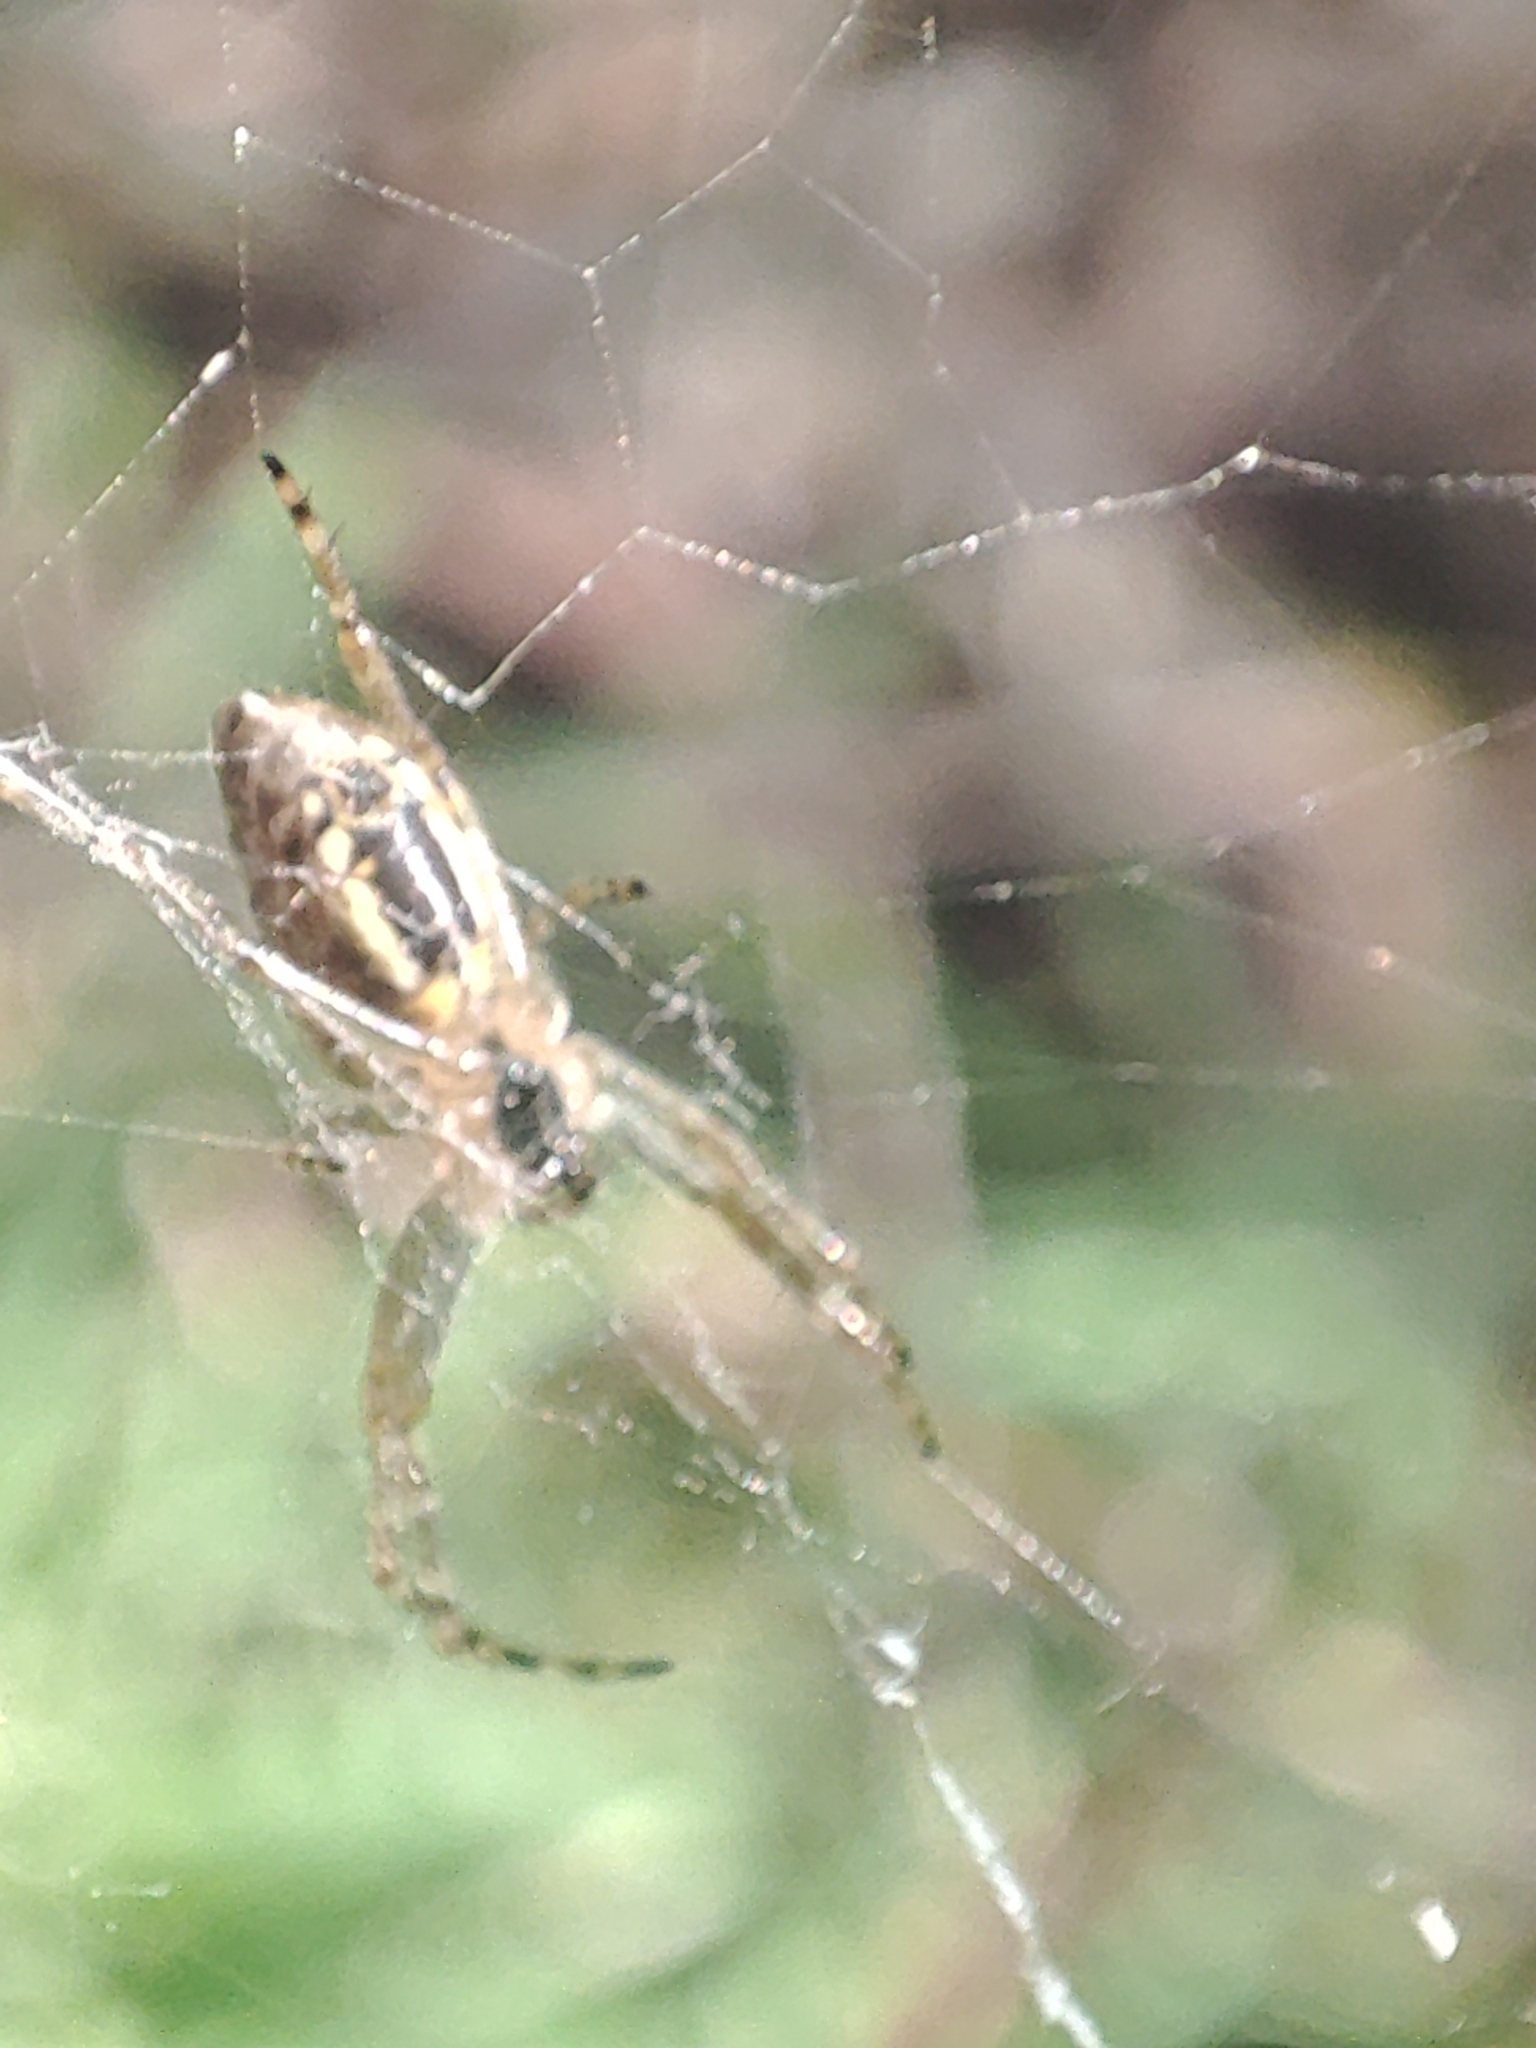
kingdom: Animalia
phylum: Arthropoda
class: Arachnida
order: Araneae
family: Araneidae
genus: Plebs
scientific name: Plebs eburnus
